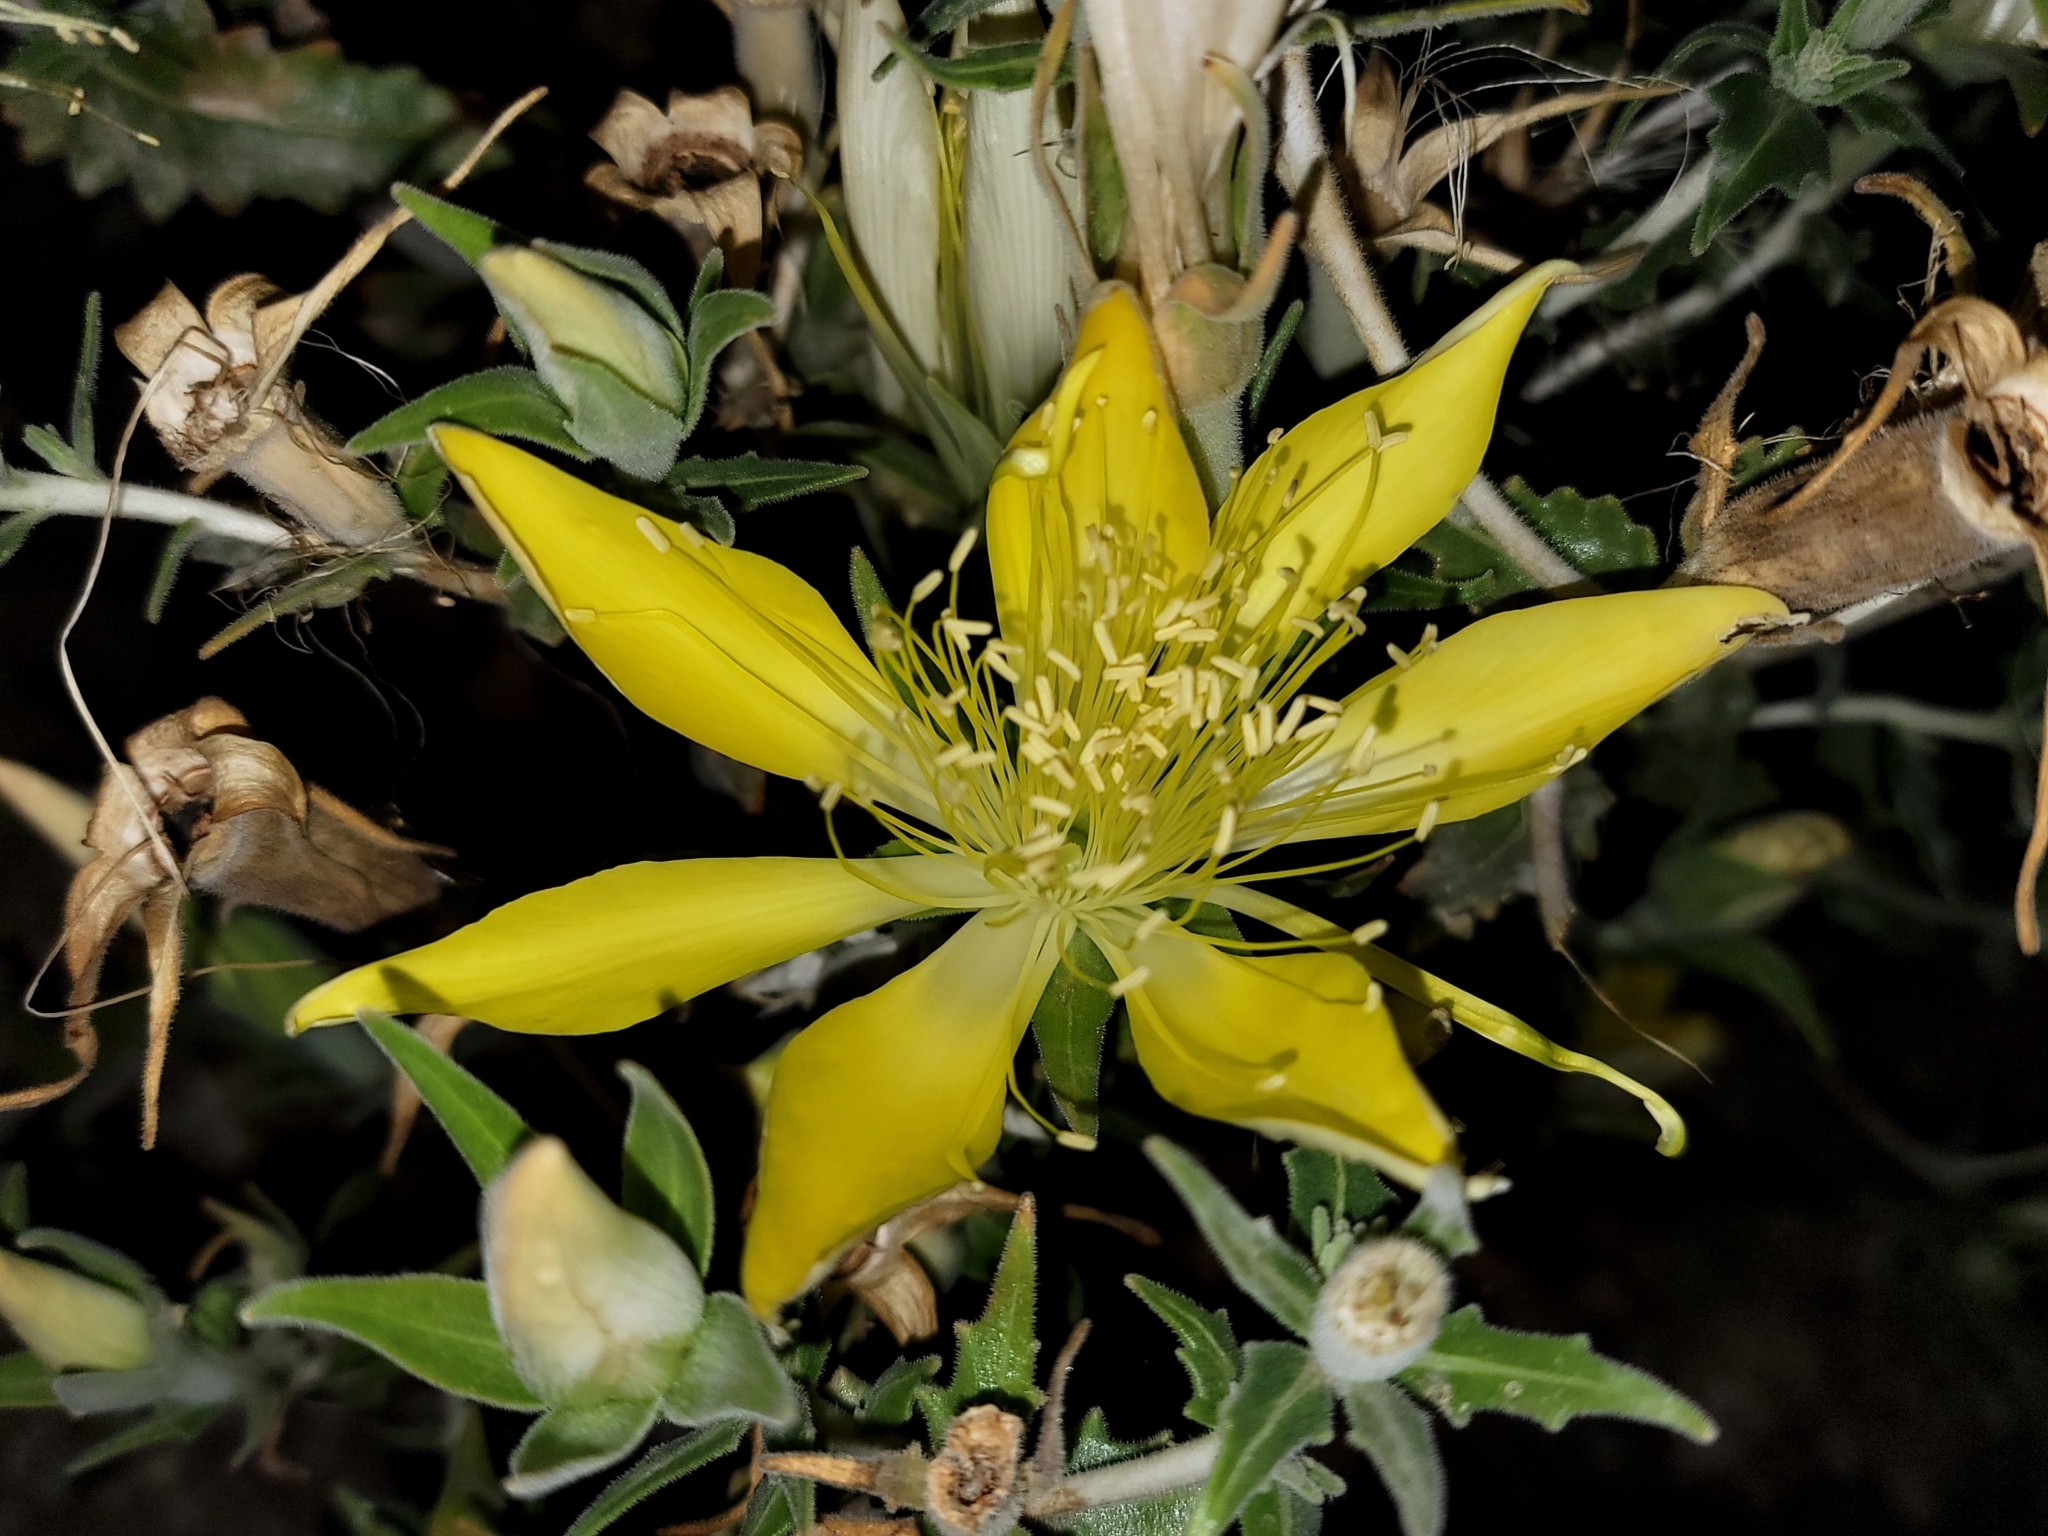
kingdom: Plantae
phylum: Tracheophyta
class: Magnoliopsida
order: Cornales
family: Loasaceae
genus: Mentzelia
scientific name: Mentzelia laevicaulis
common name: Smooth-stem blazingstar
